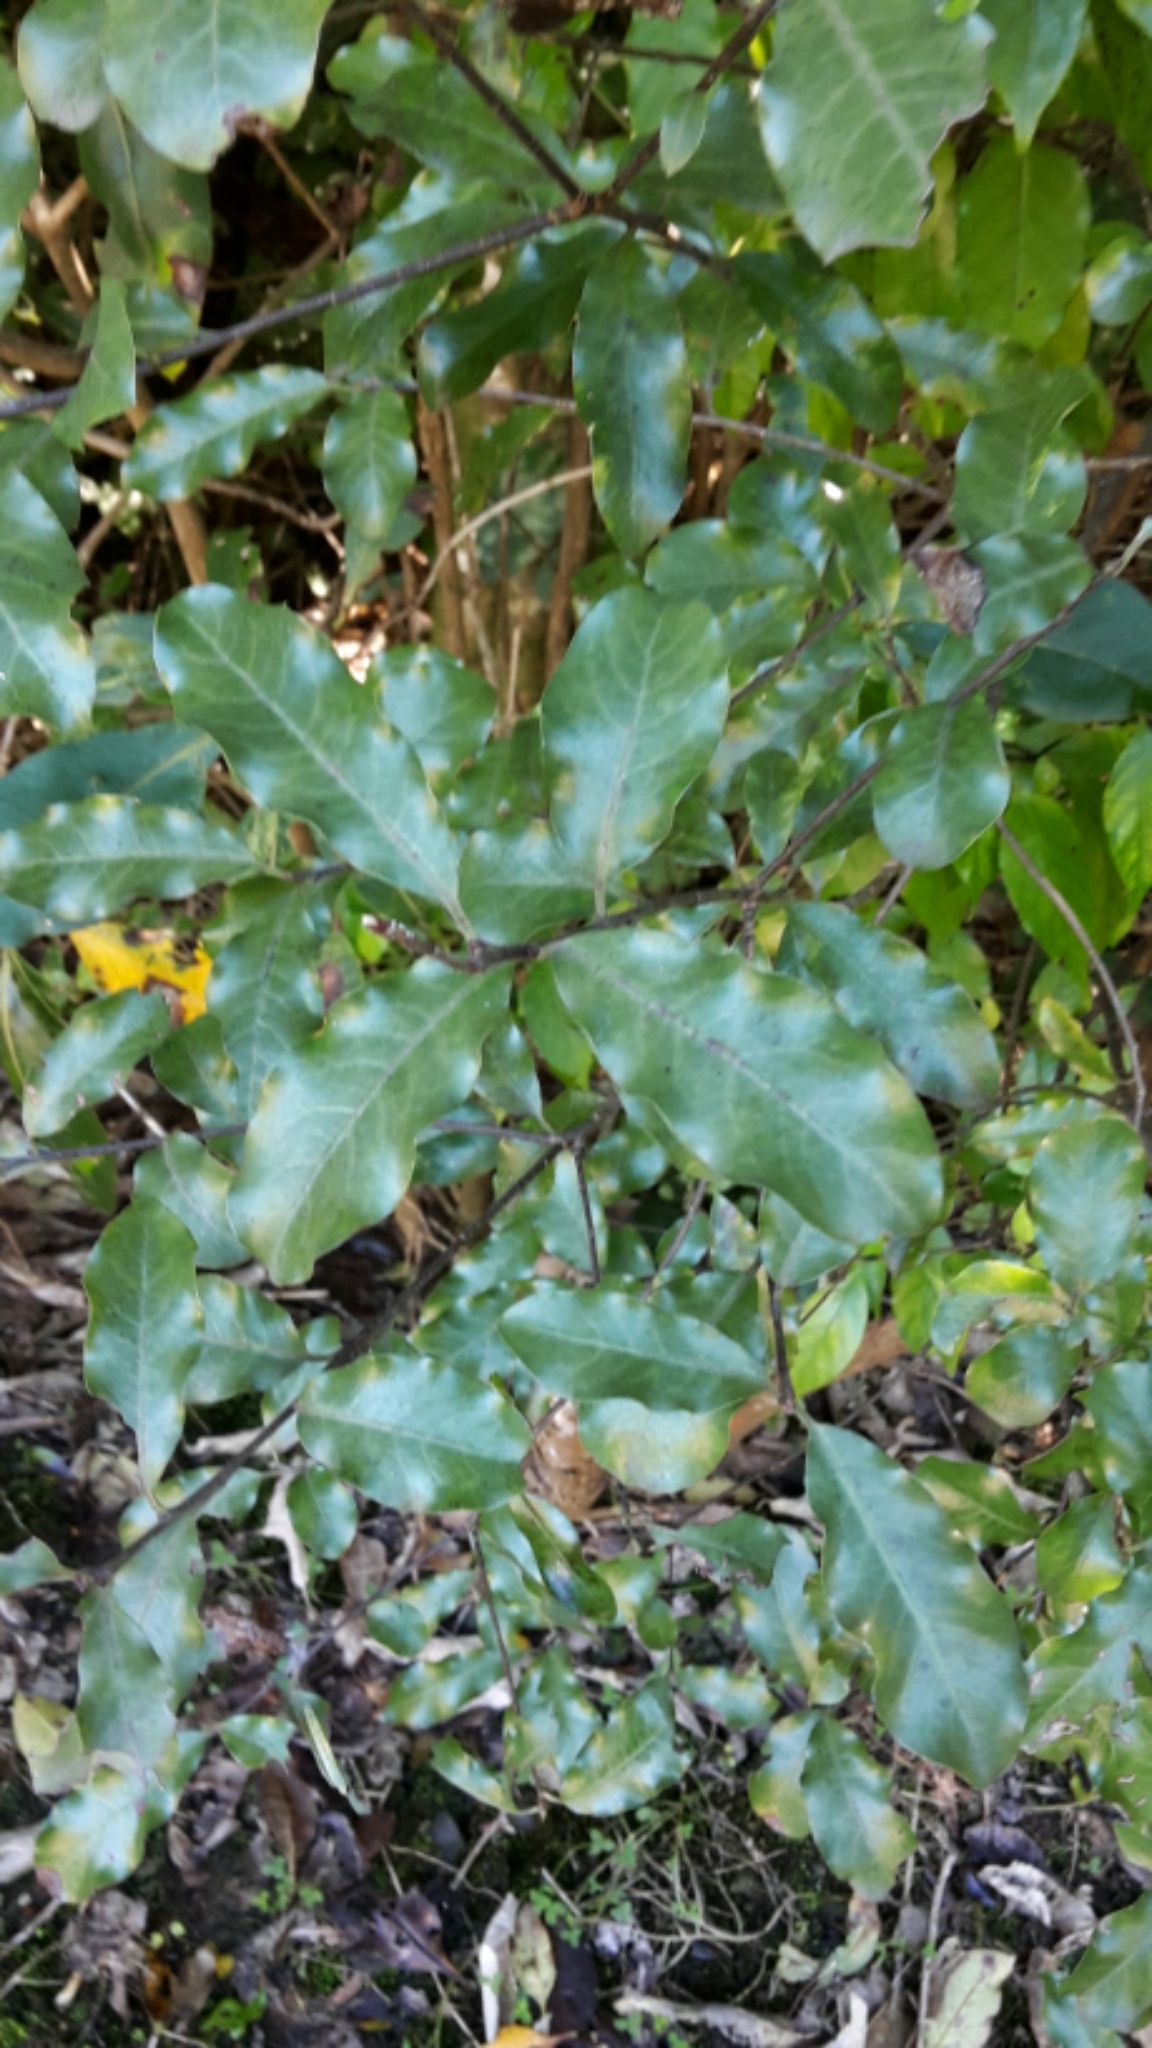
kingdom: Plantae
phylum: Tracheophyta
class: Magnoliopsida
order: Apiales
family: Pittosporaceae
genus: Pittosporum
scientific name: Pittosporum tenuifolium
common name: Kohuhu
